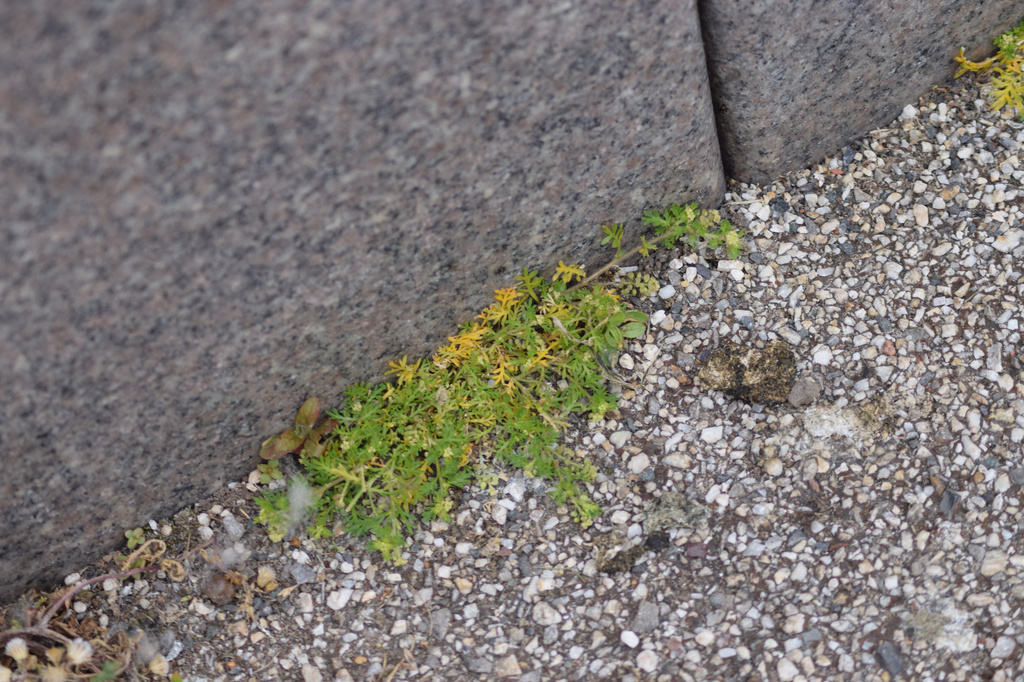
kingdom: Plantae
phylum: Tracheophyta
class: Magnoliopsida
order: Brassicales
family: Brassicaceae
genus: Lepidium
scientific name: Lepidium didymum
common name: Lesser swinecress
